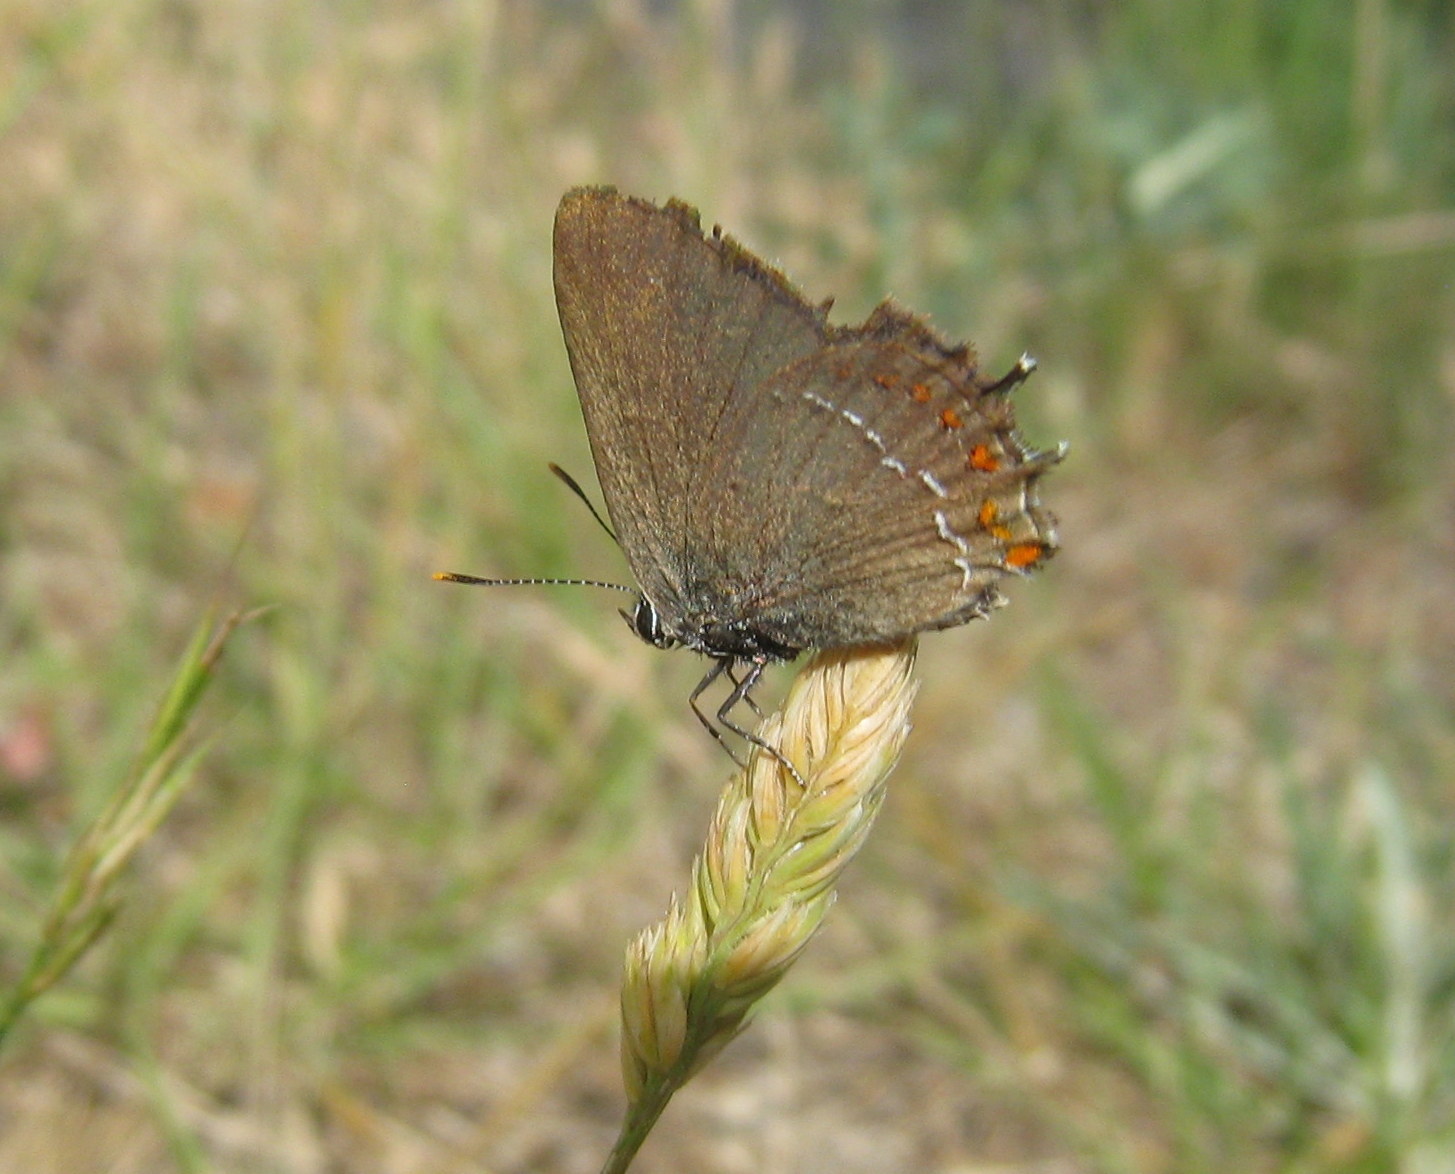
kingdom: Animalia
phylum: Arthropoda
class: Insecta
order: Lepidoptera
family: Lycaenidae
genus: Fixsenia
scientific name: Fixsenia esculi
